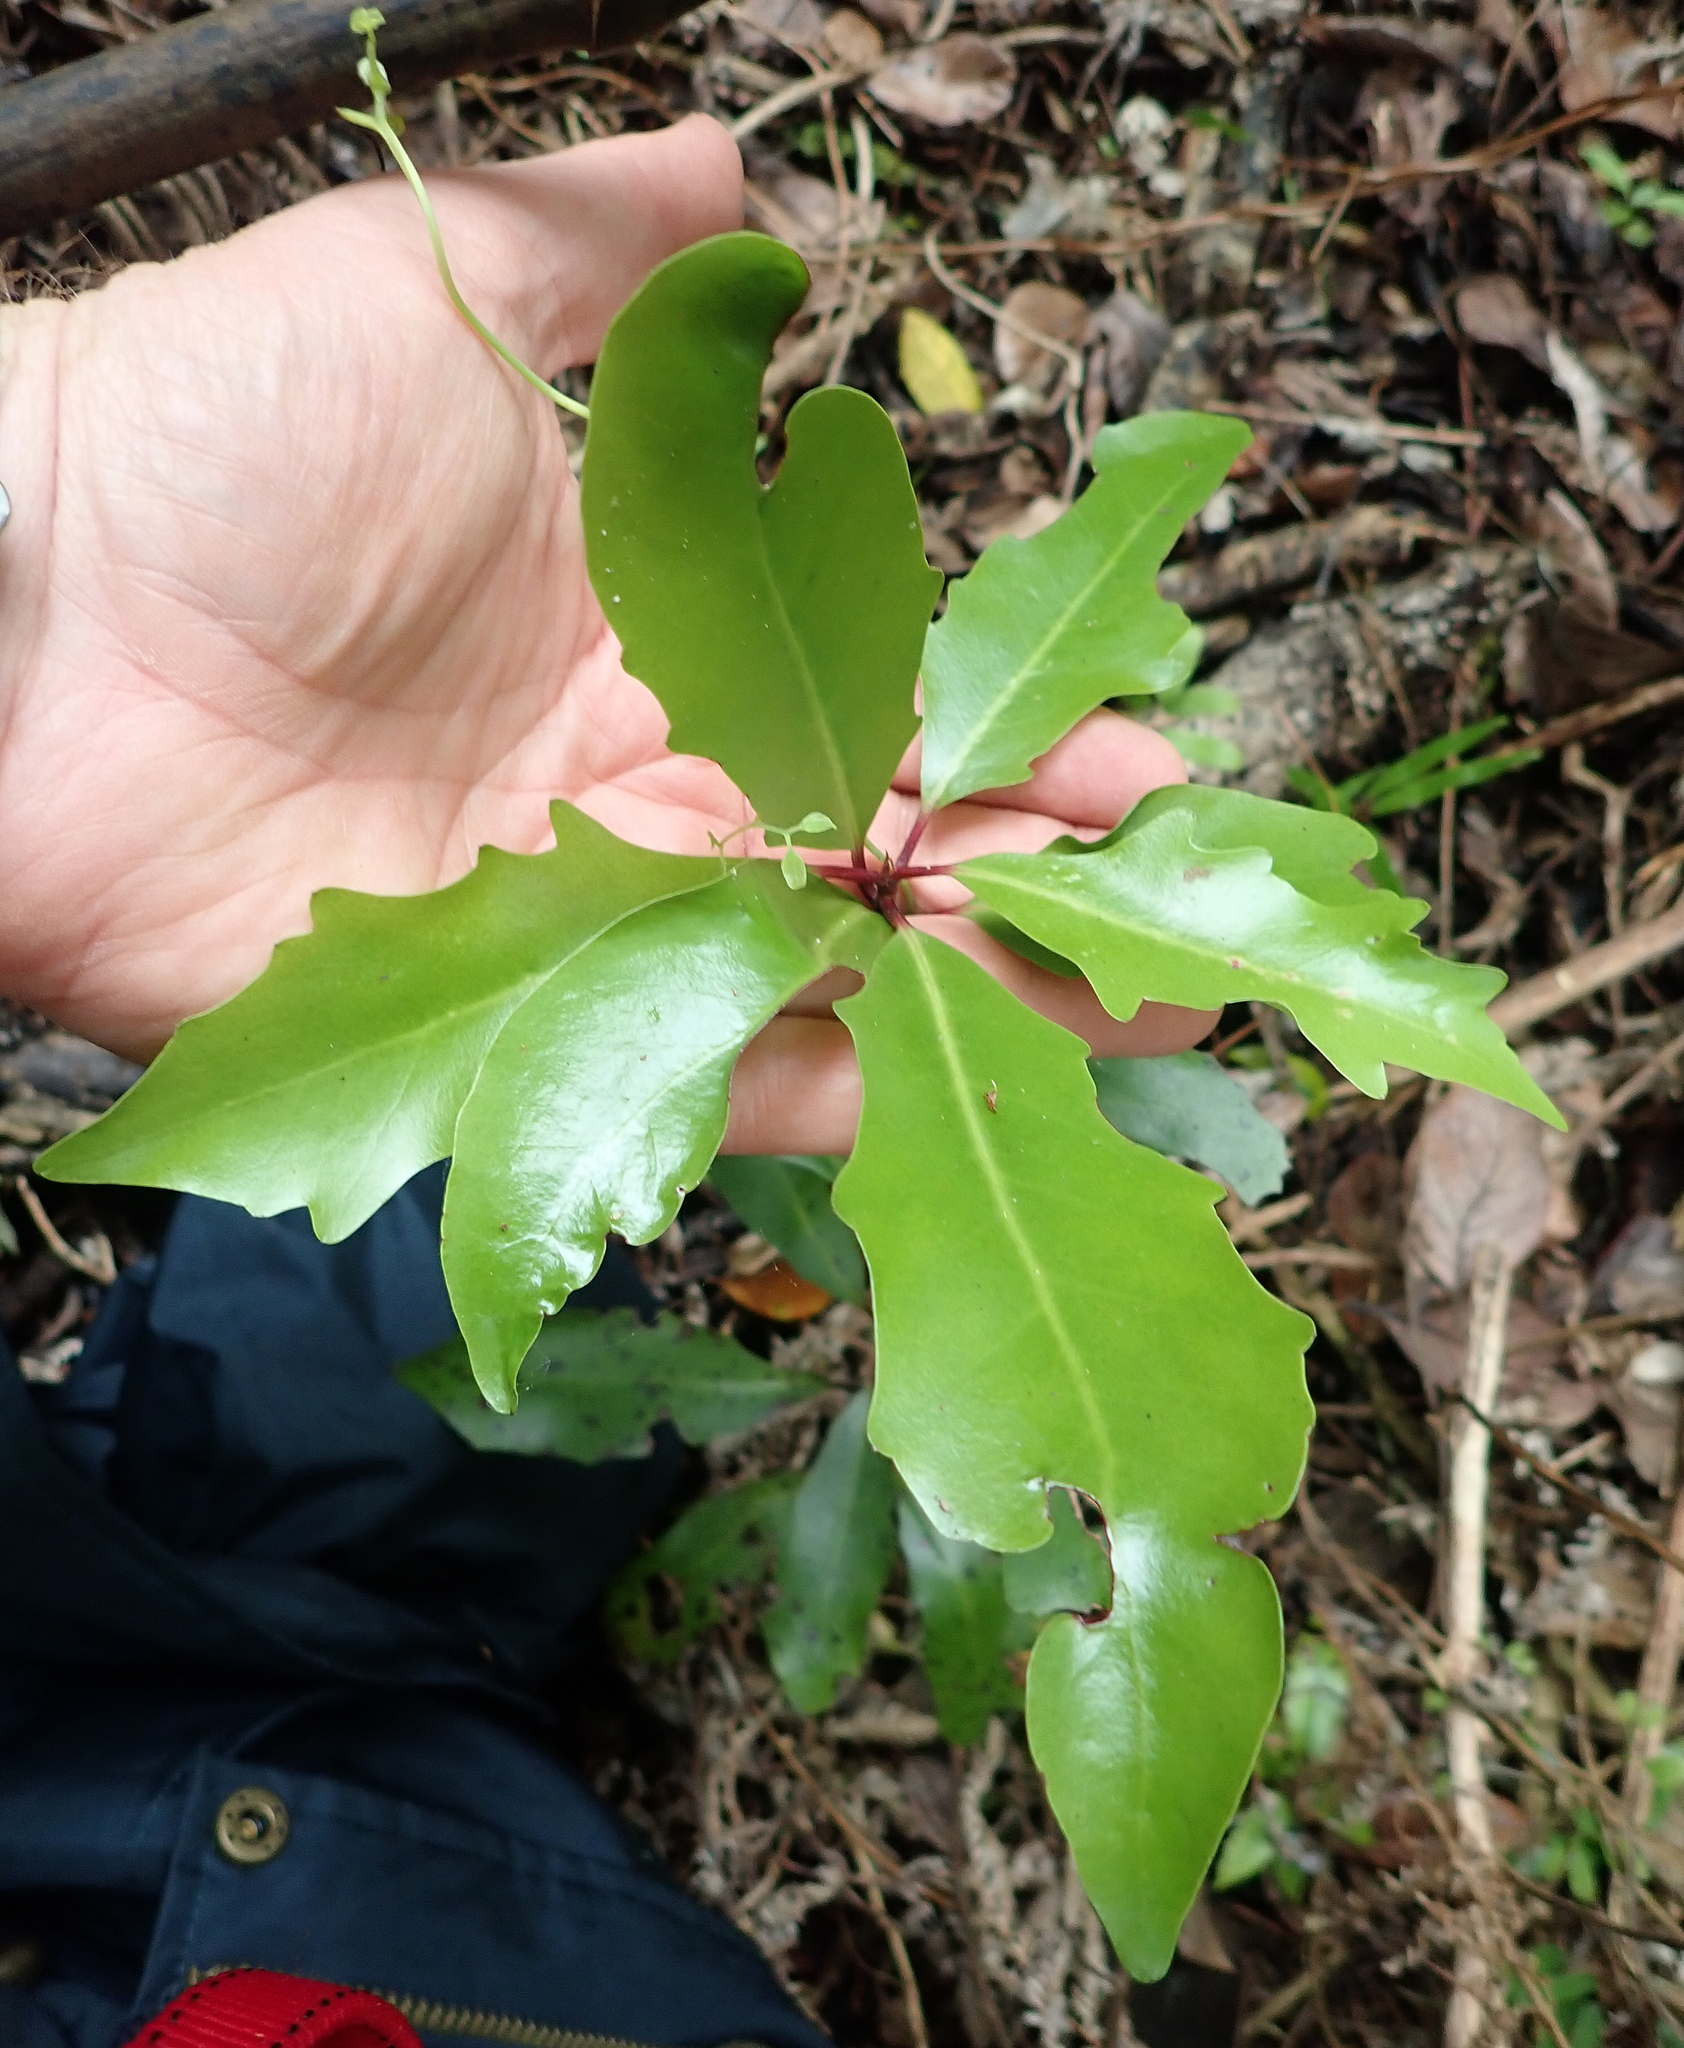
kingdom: Plantae
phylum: Tracheophyta
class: Magnoliopsida
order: Asterales
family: Alseuosmiaceae
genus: Alseuosmia
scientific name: Alseuosmia quercifolia
